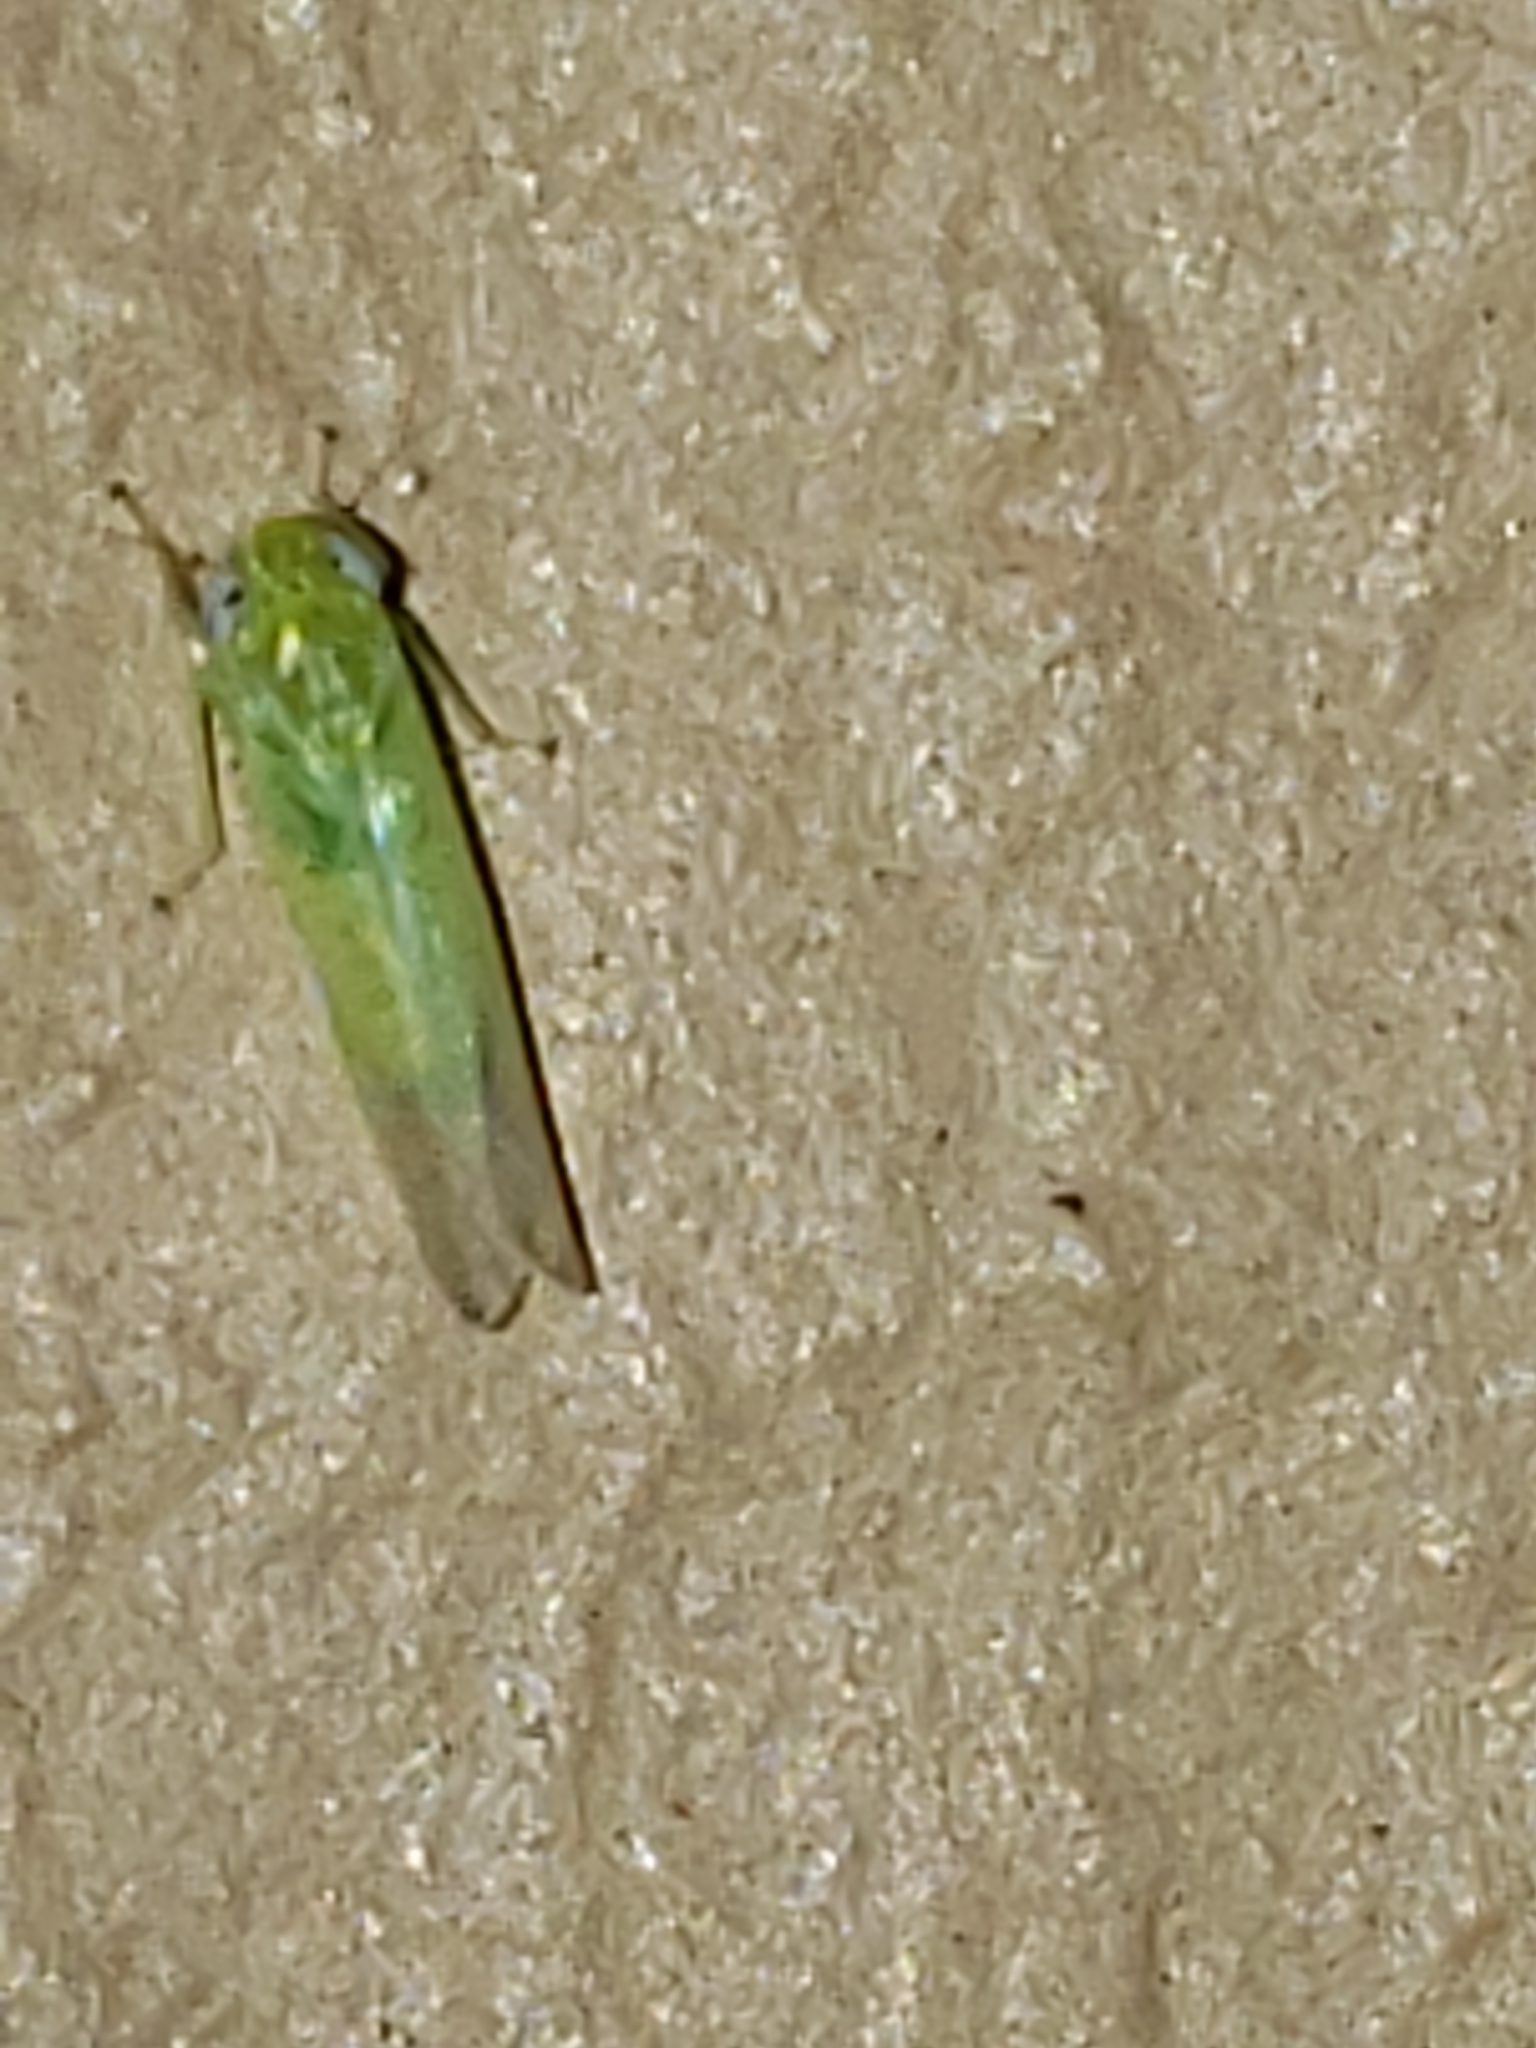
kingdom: Animalia
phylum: Arthropoda
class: Insecta
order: Hemiptera
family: Cicadellidae
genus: Empoasca
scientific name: Empoasca fabae
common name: Potato leafhopper
